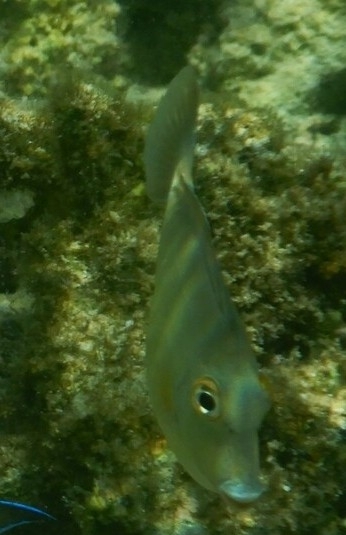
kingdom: Animalia
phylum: Chordata
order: Perciformes
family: Acanthuridae
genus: Naso
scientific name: Naso unicornis
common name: Bluespine unicornfish
